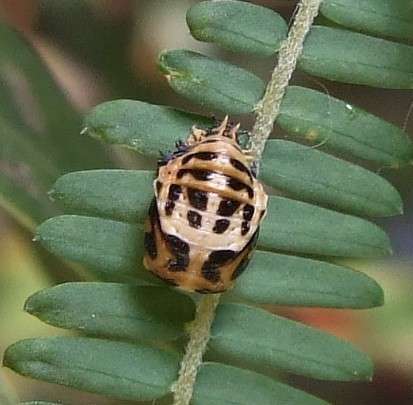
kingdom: Animalia
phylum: Arthropoda
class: Insecta
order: Coleoptera
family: Coccinellidae
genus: Harmonia
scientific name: Harmonia conformis
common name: Common spotted ladybird beetle
